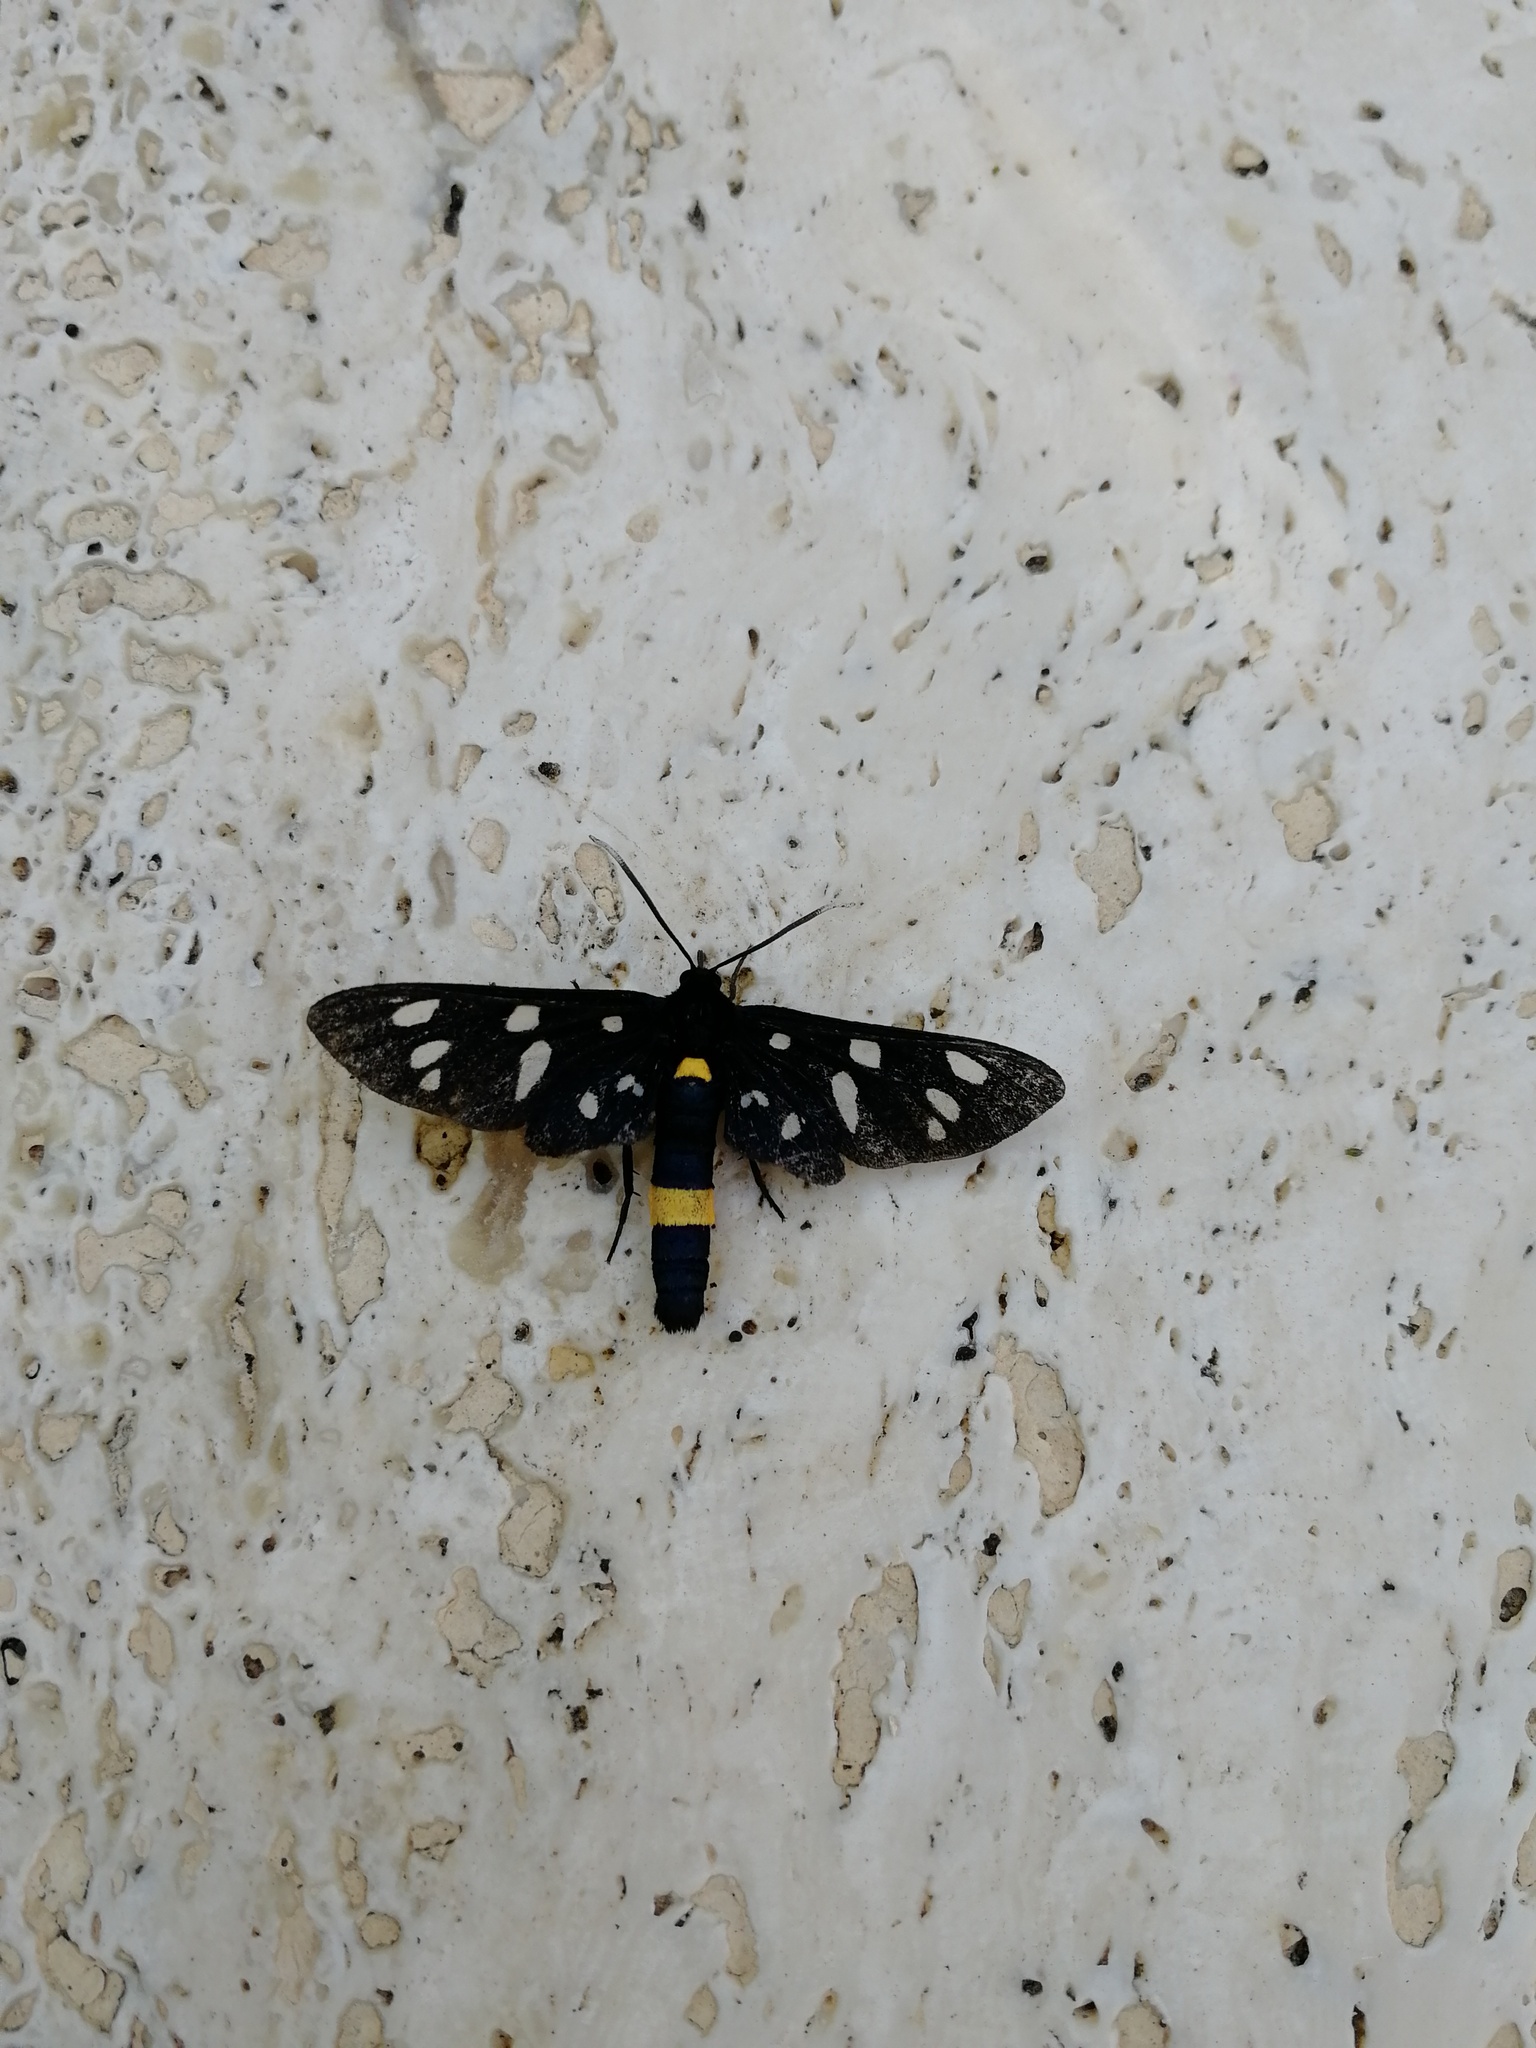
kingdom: Animalia
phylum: Arthropoda
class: Insecta
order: Lepidoptera
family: Erebidae
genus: Amata
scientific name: Amata phegea
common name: Nine-spotted
